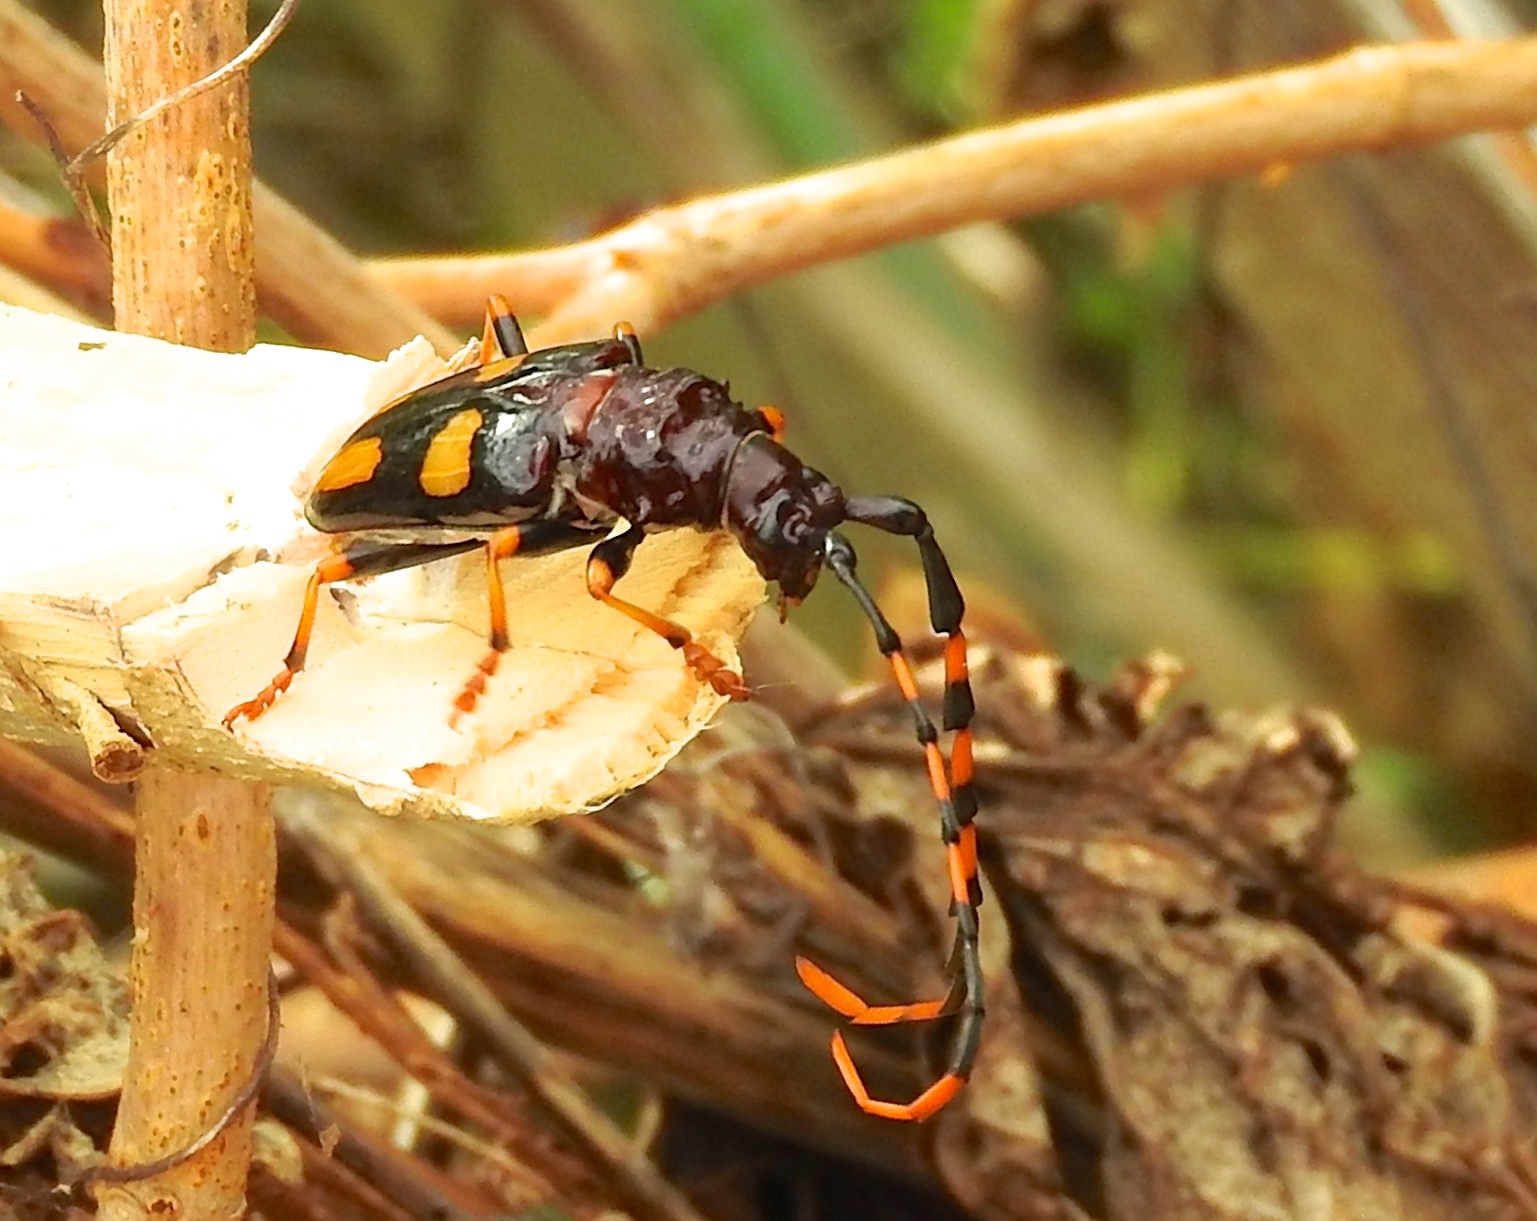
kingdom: Animalia
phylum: Arthropoda
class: Insecta
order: Coleoptera
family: Cerambycidae
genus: Trachyderes
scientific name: Trachyderes mandibularis
